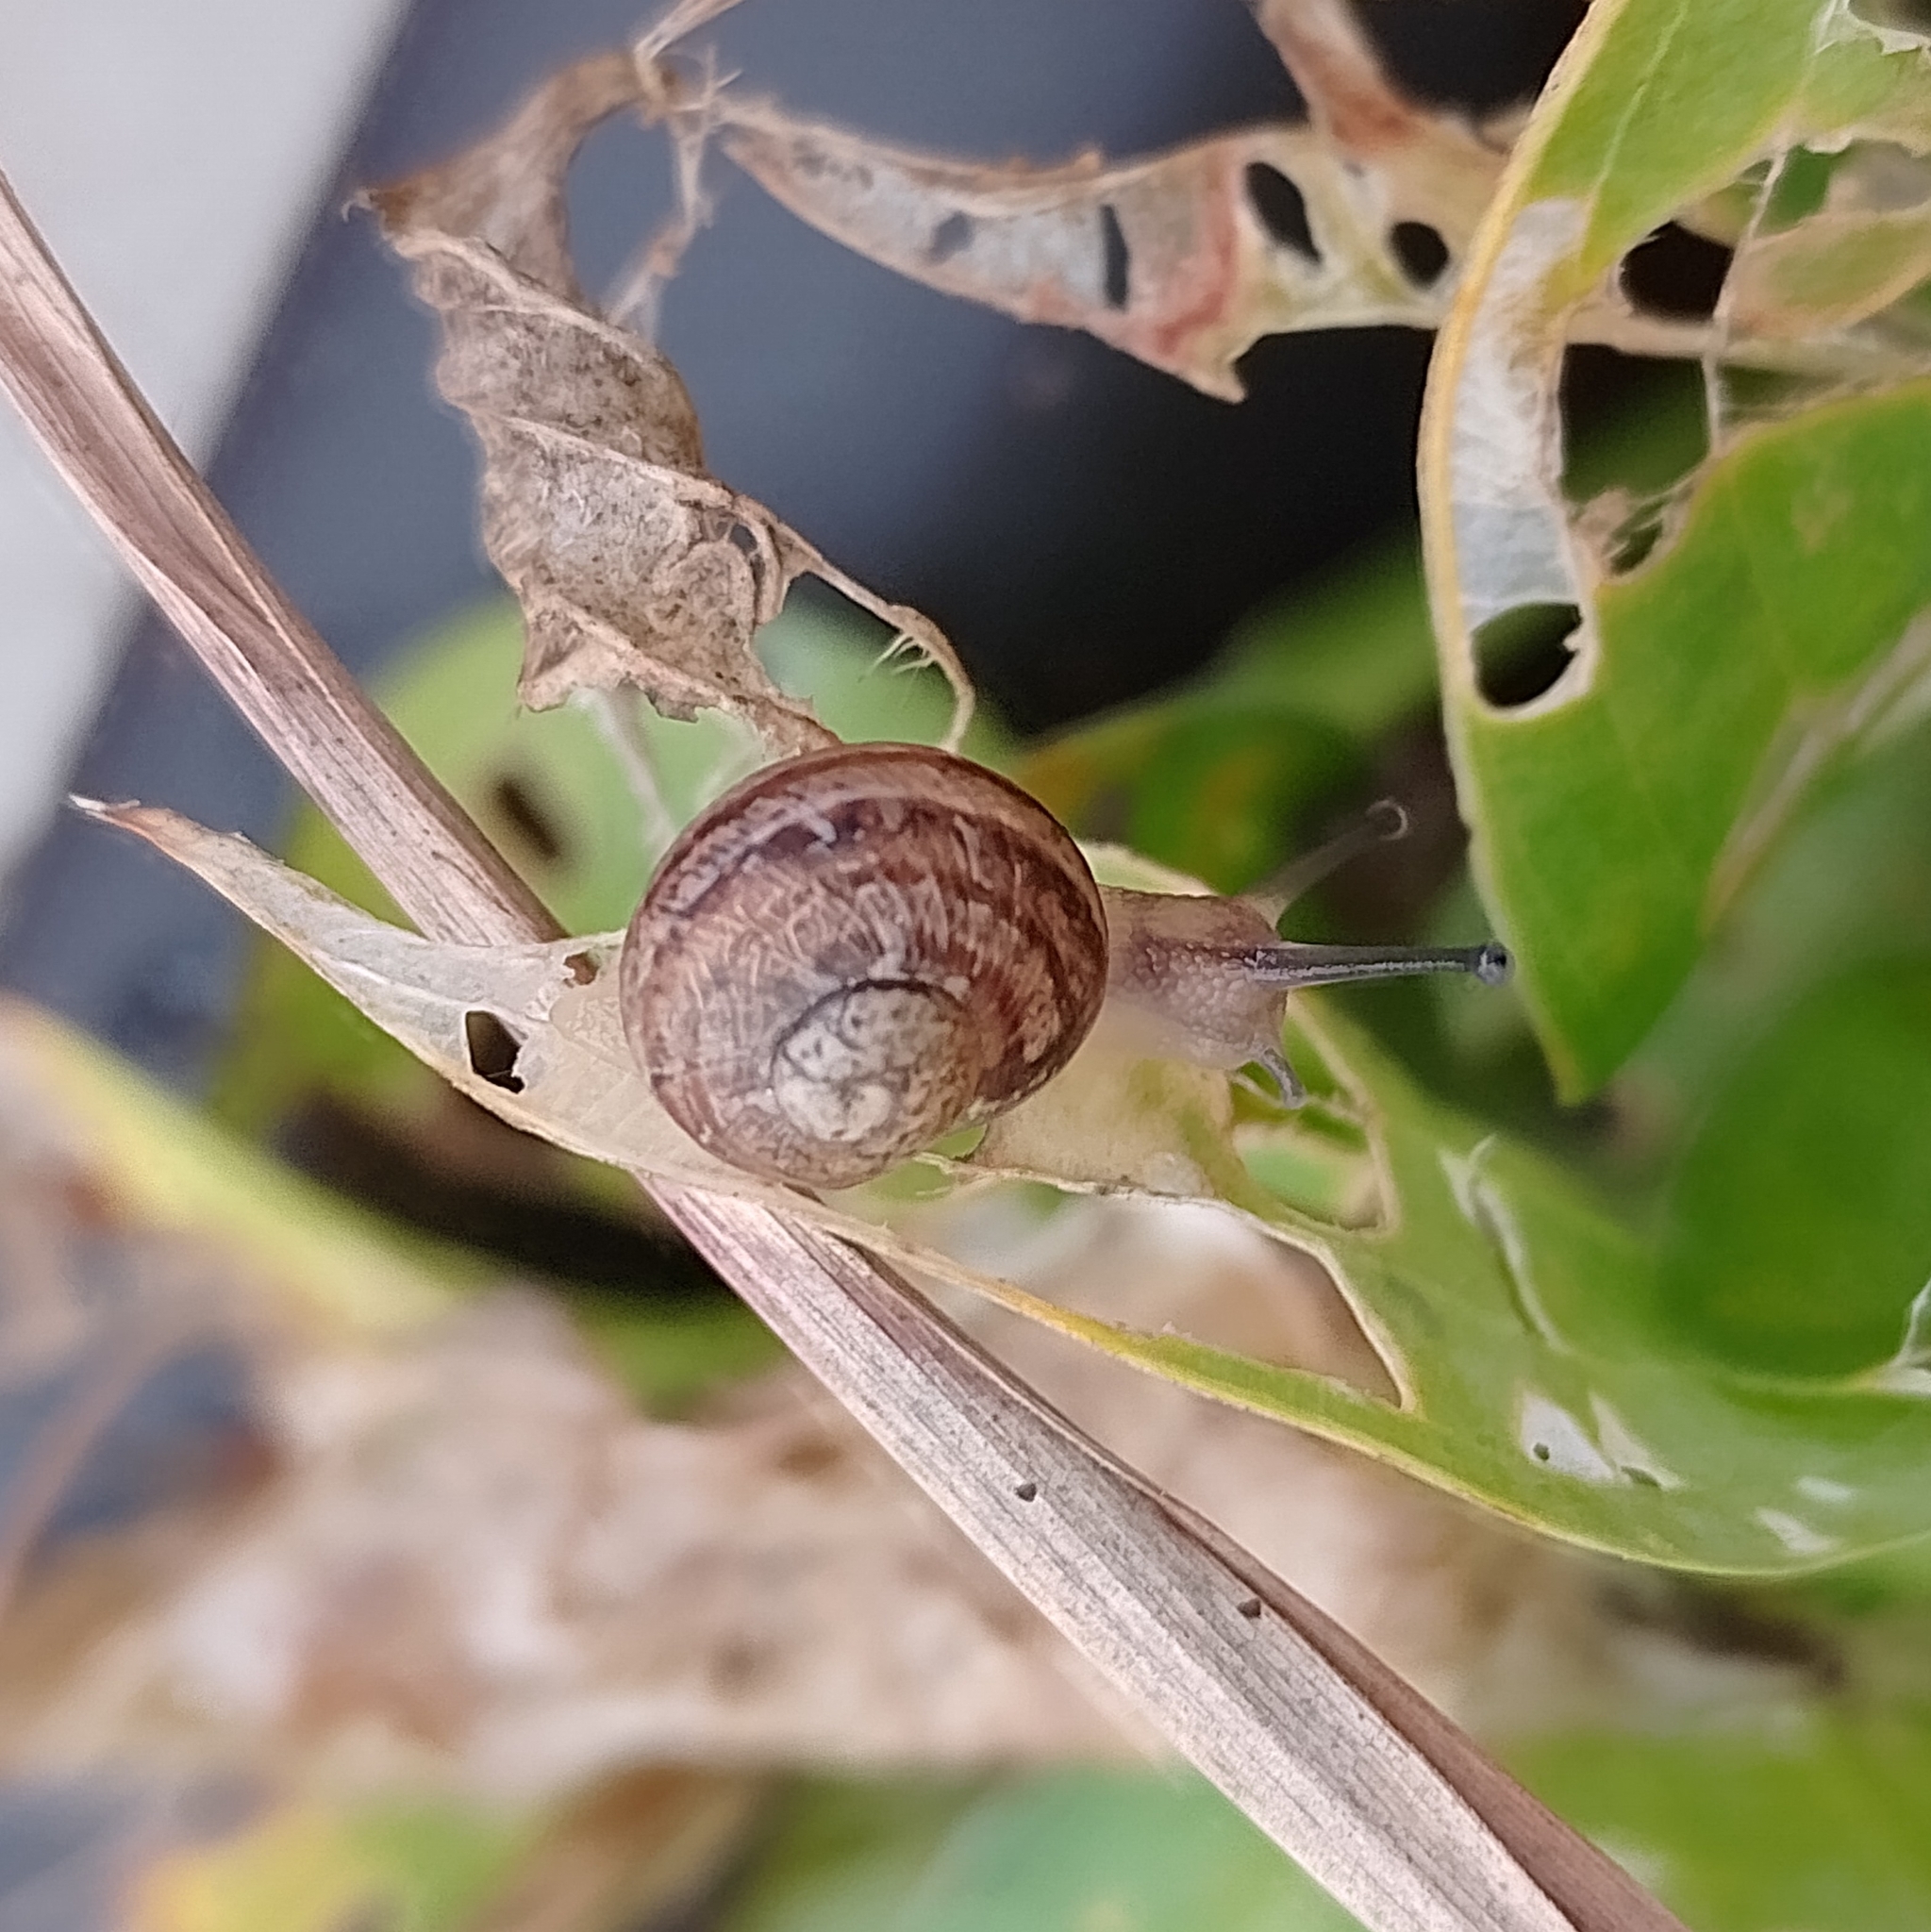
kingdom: Animalia
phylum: Mollusca
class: Gastropoda
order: Stylommatophora
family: Helicidae
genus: Cornu
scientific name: Cornu aspersum
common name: Brown garden snail
